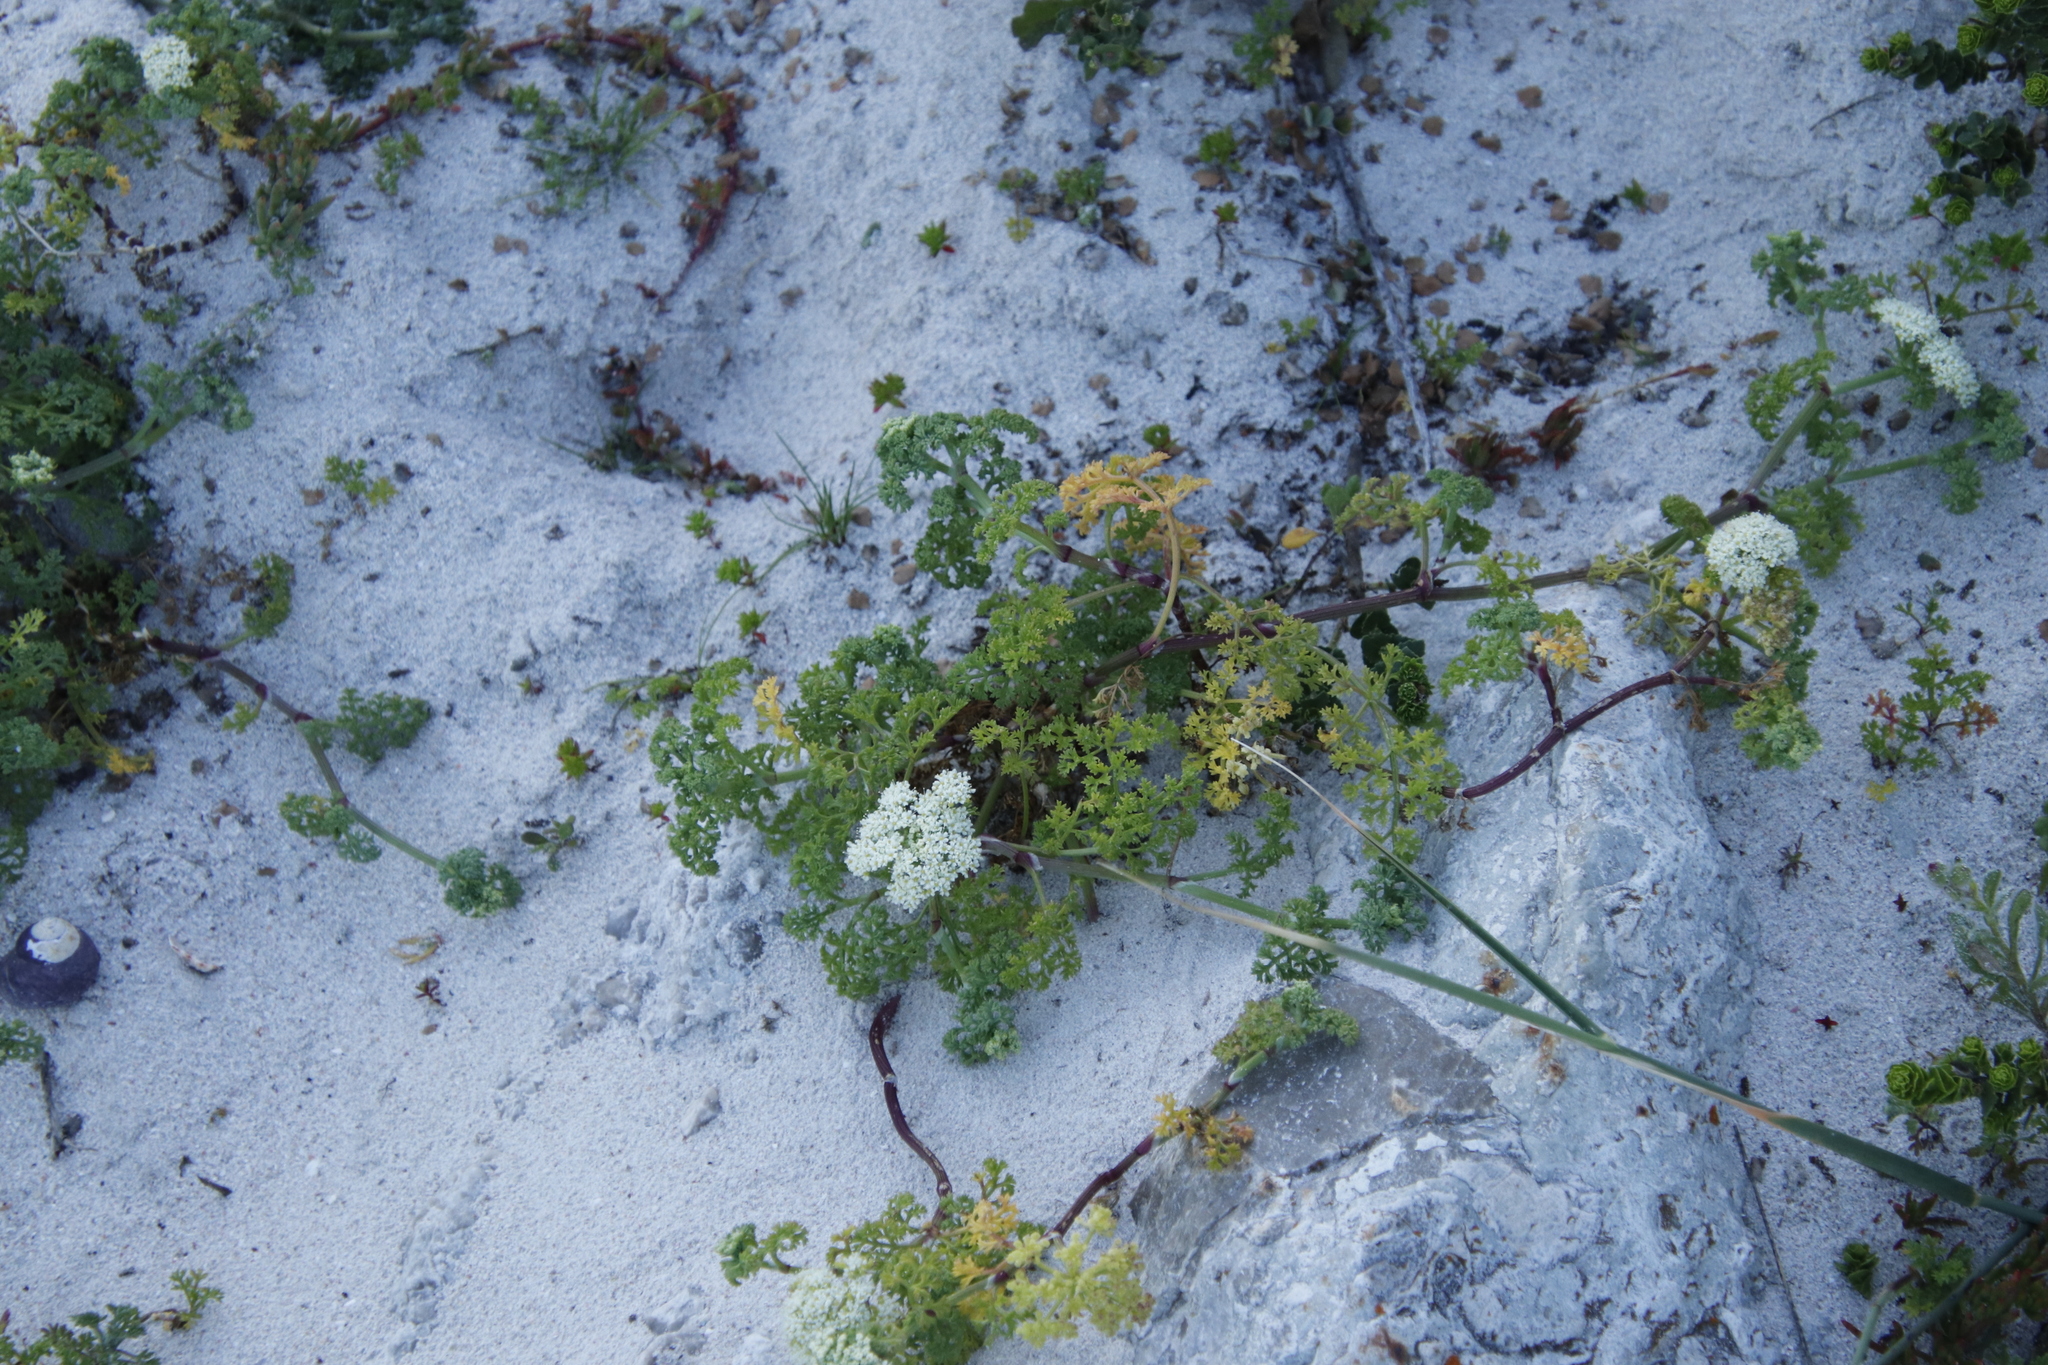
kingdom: Plantae
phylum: Tracheophyta
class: Magnoliopsida
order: Apiales
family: Apiaceae
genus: Dasispermum
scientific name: Dasispermum suffruticosum
